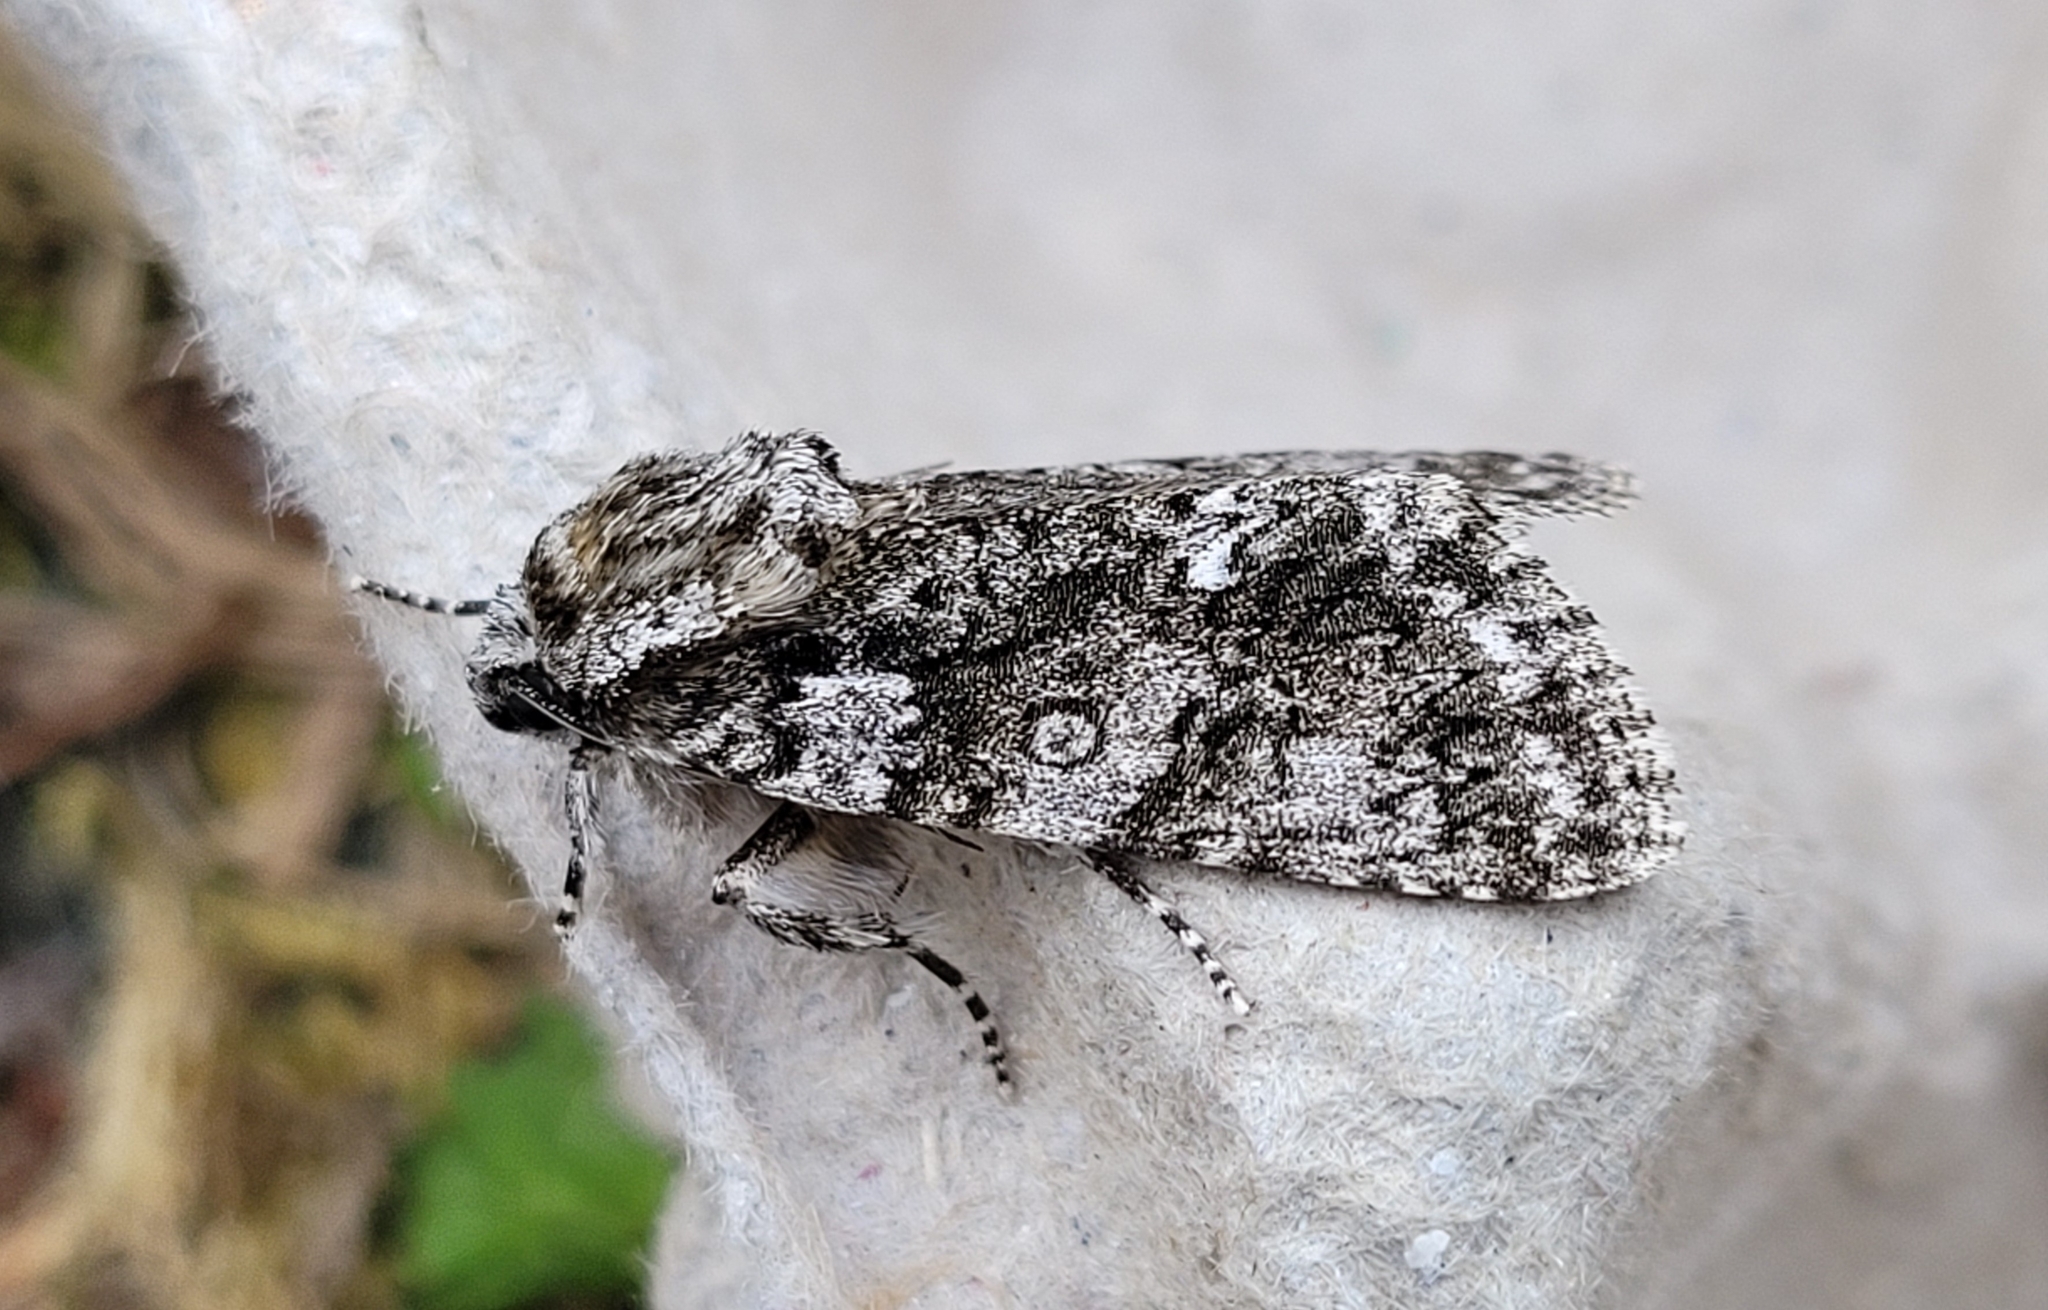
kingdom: Animalia
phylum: Arthropoda
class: Insecta
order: Lepidoptera
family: Noctuidae
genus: Acronicta
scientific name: Acronicta rumicis
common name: Knot grass
